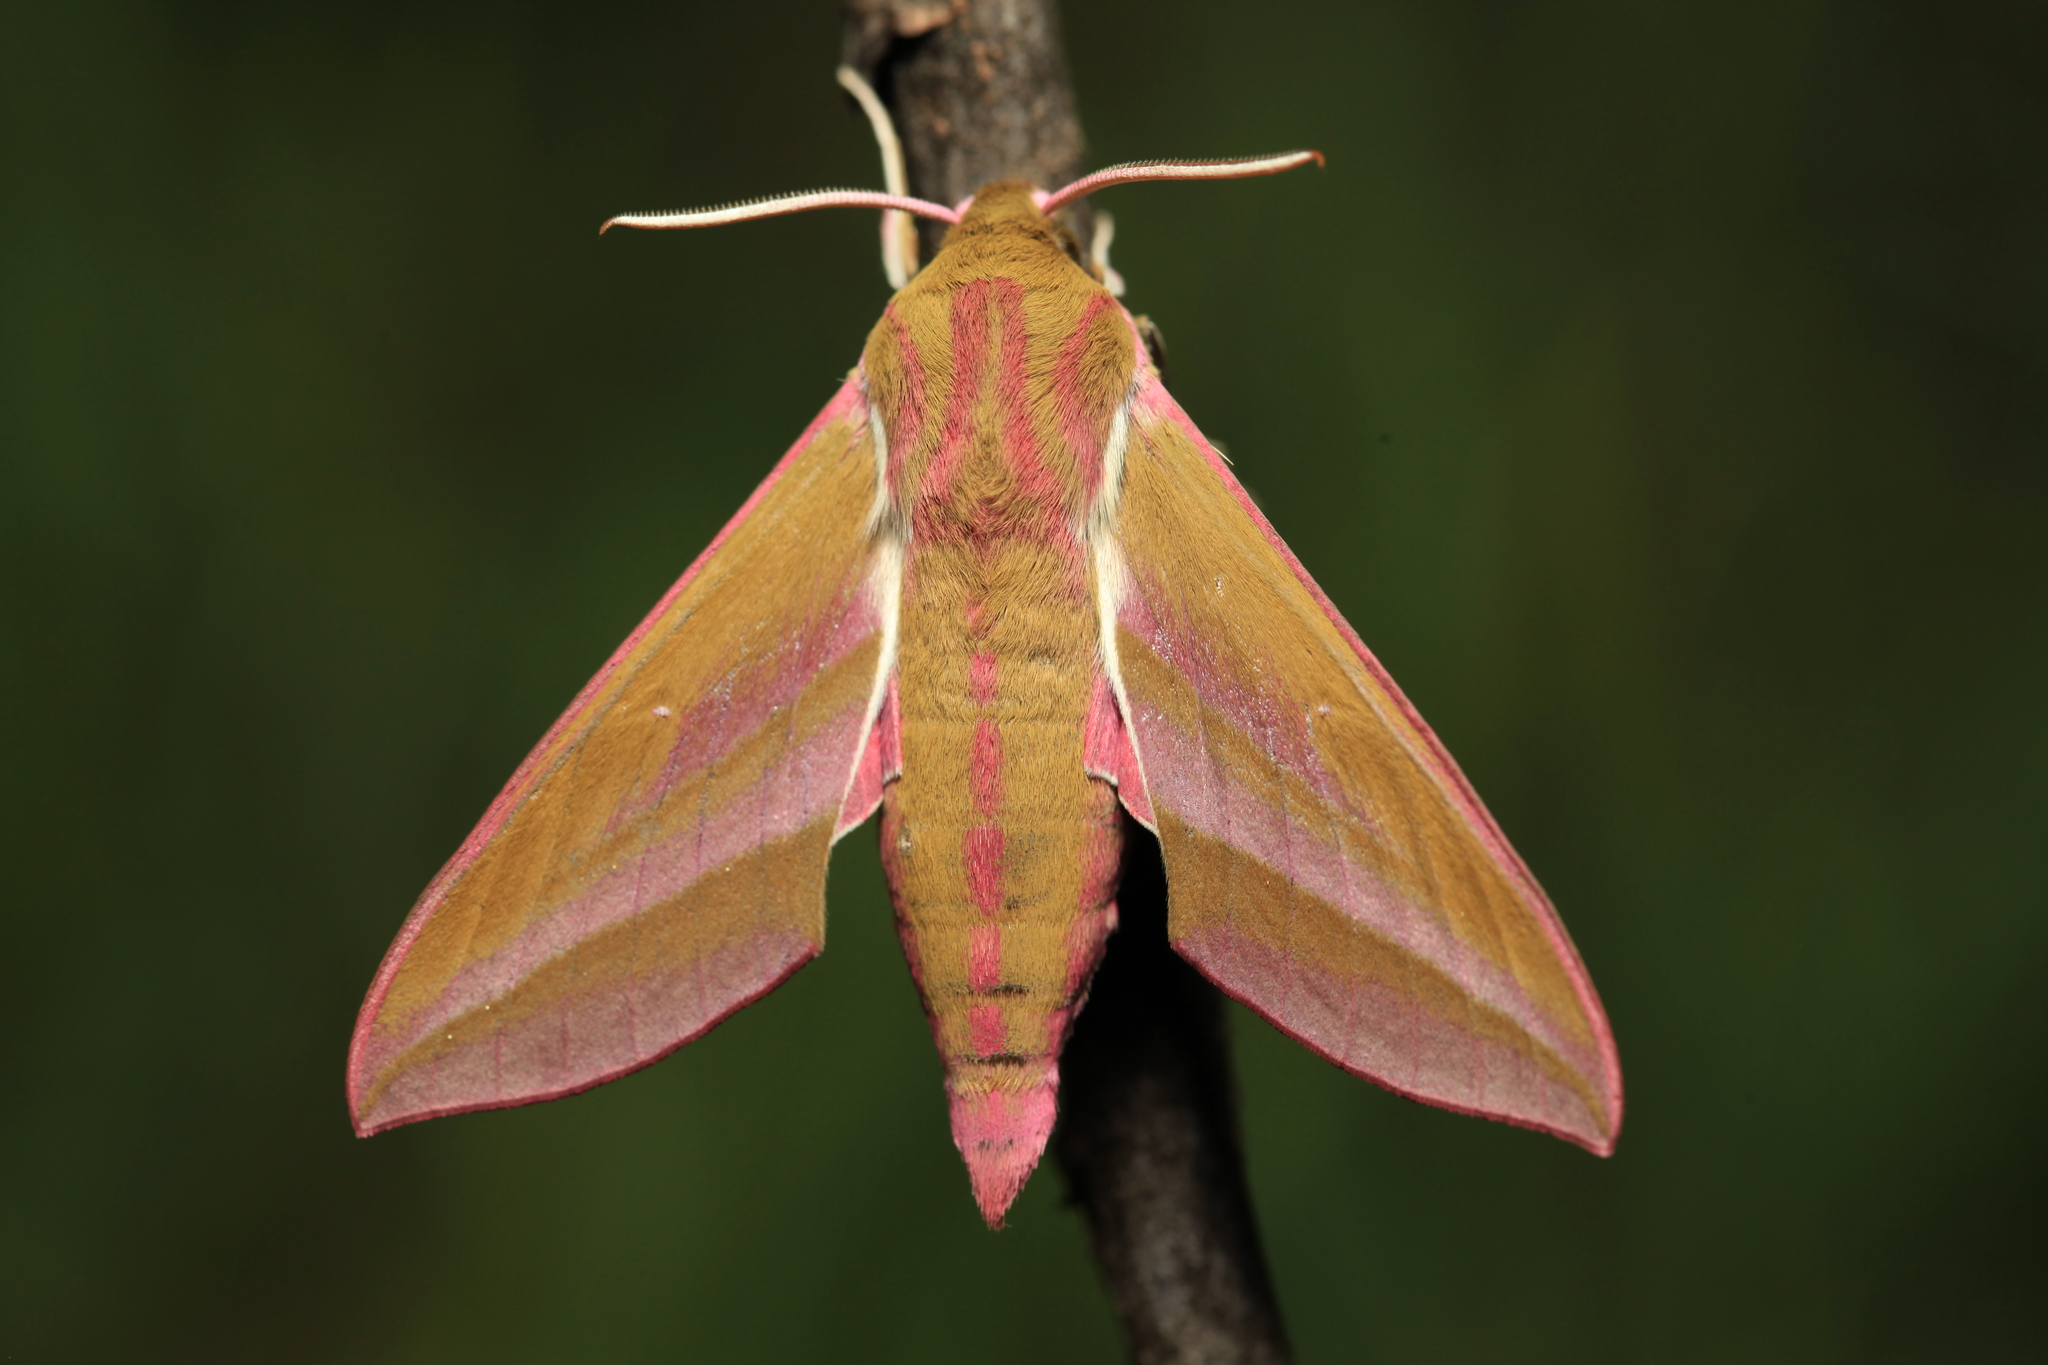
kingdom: Animalia
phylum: Arthropoda
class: Insecta
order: Lepidoptera
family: Sphingidae
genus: Deilephila
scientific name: Deilephila elpenor
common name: Elephant hawk-moth
